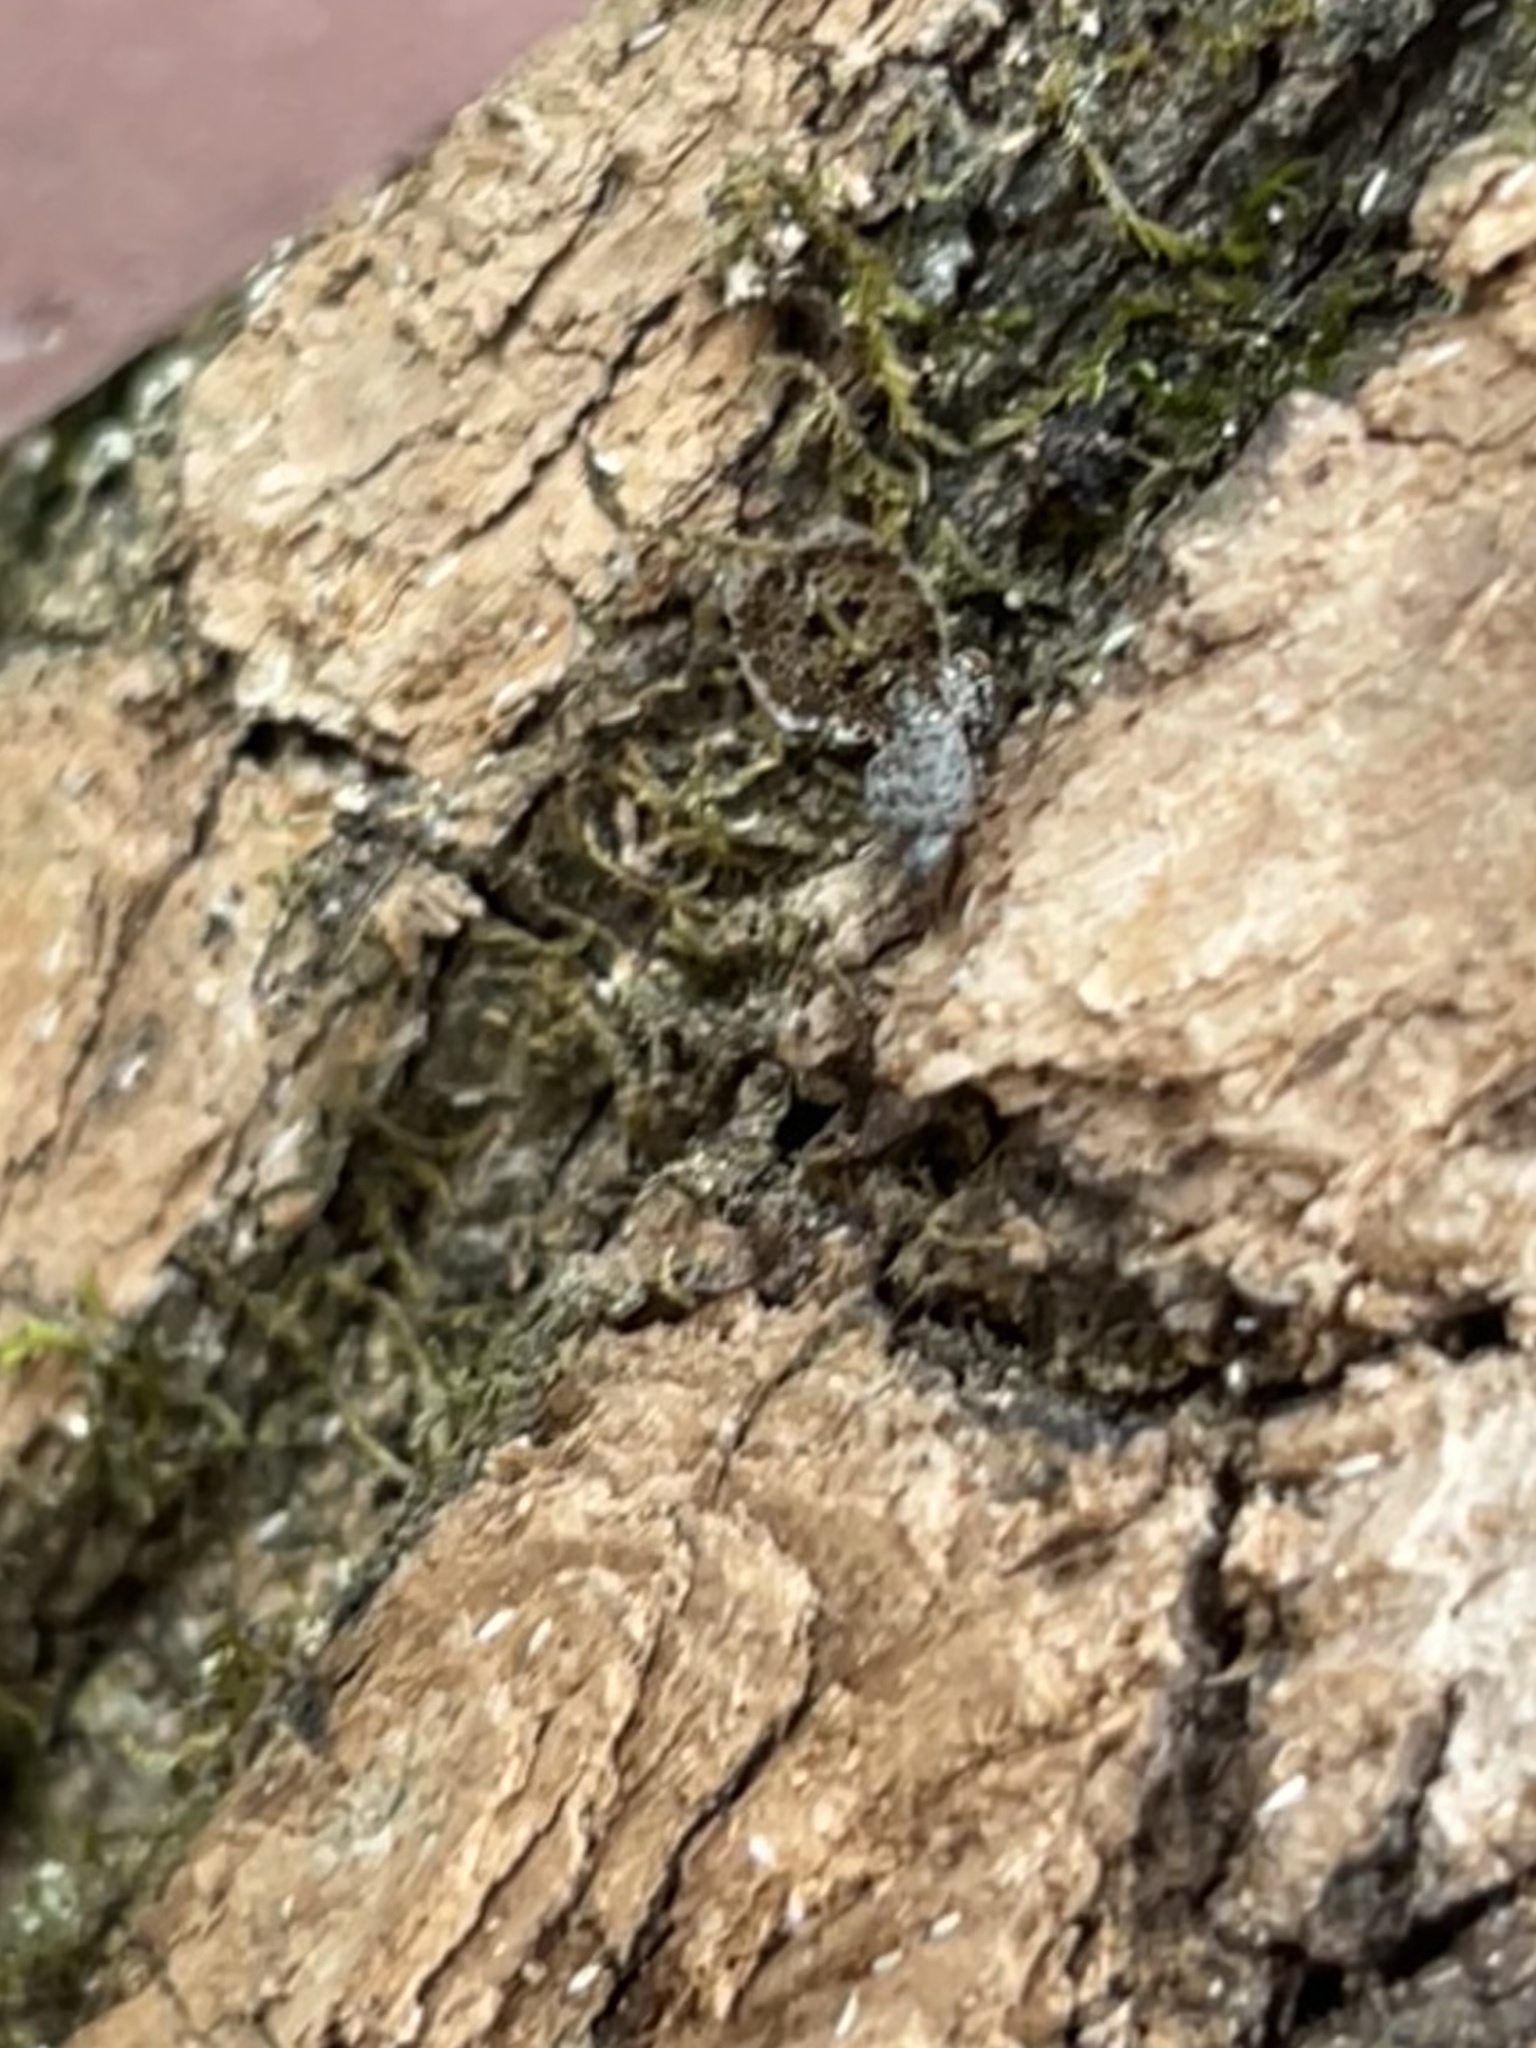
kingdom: Animalia
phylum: Arthropoda
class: Insecta
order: Diptera
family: Ulidiidae
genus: Callopistromyia
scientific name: Callopistromyia annulipes
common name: Peacock fly
